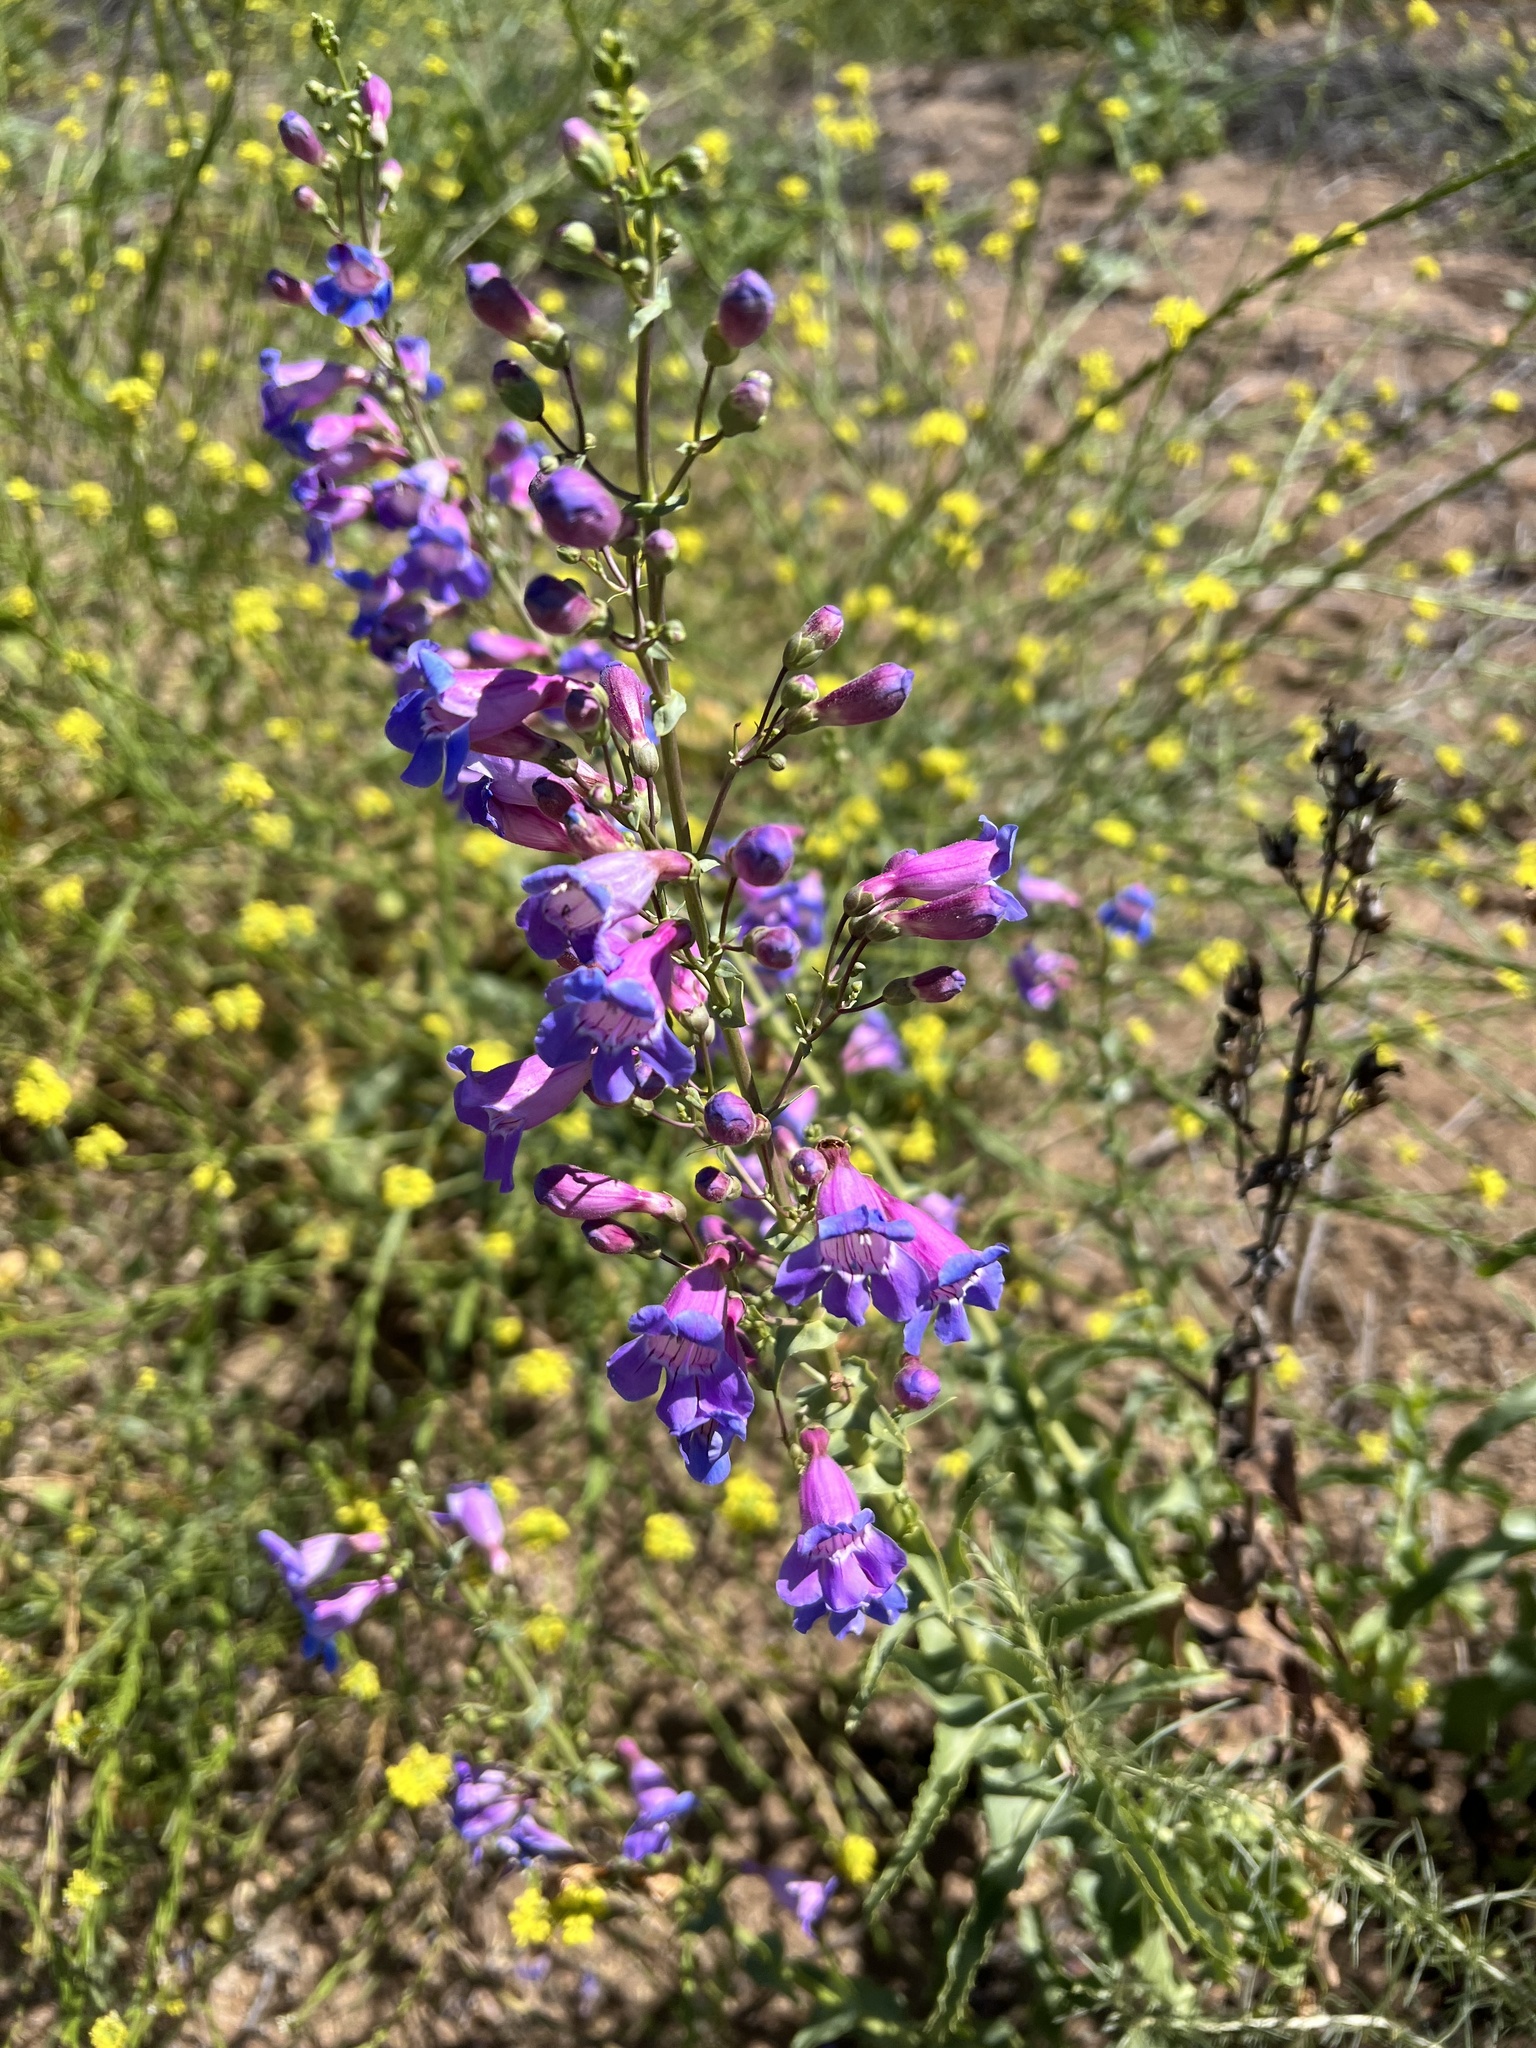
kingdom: Plantae
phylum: Tracheophyta
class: Magnoliopsida
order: Lamiales
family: Plantaginaceae
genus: Penstemon
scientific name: Penstemon spectabilis
